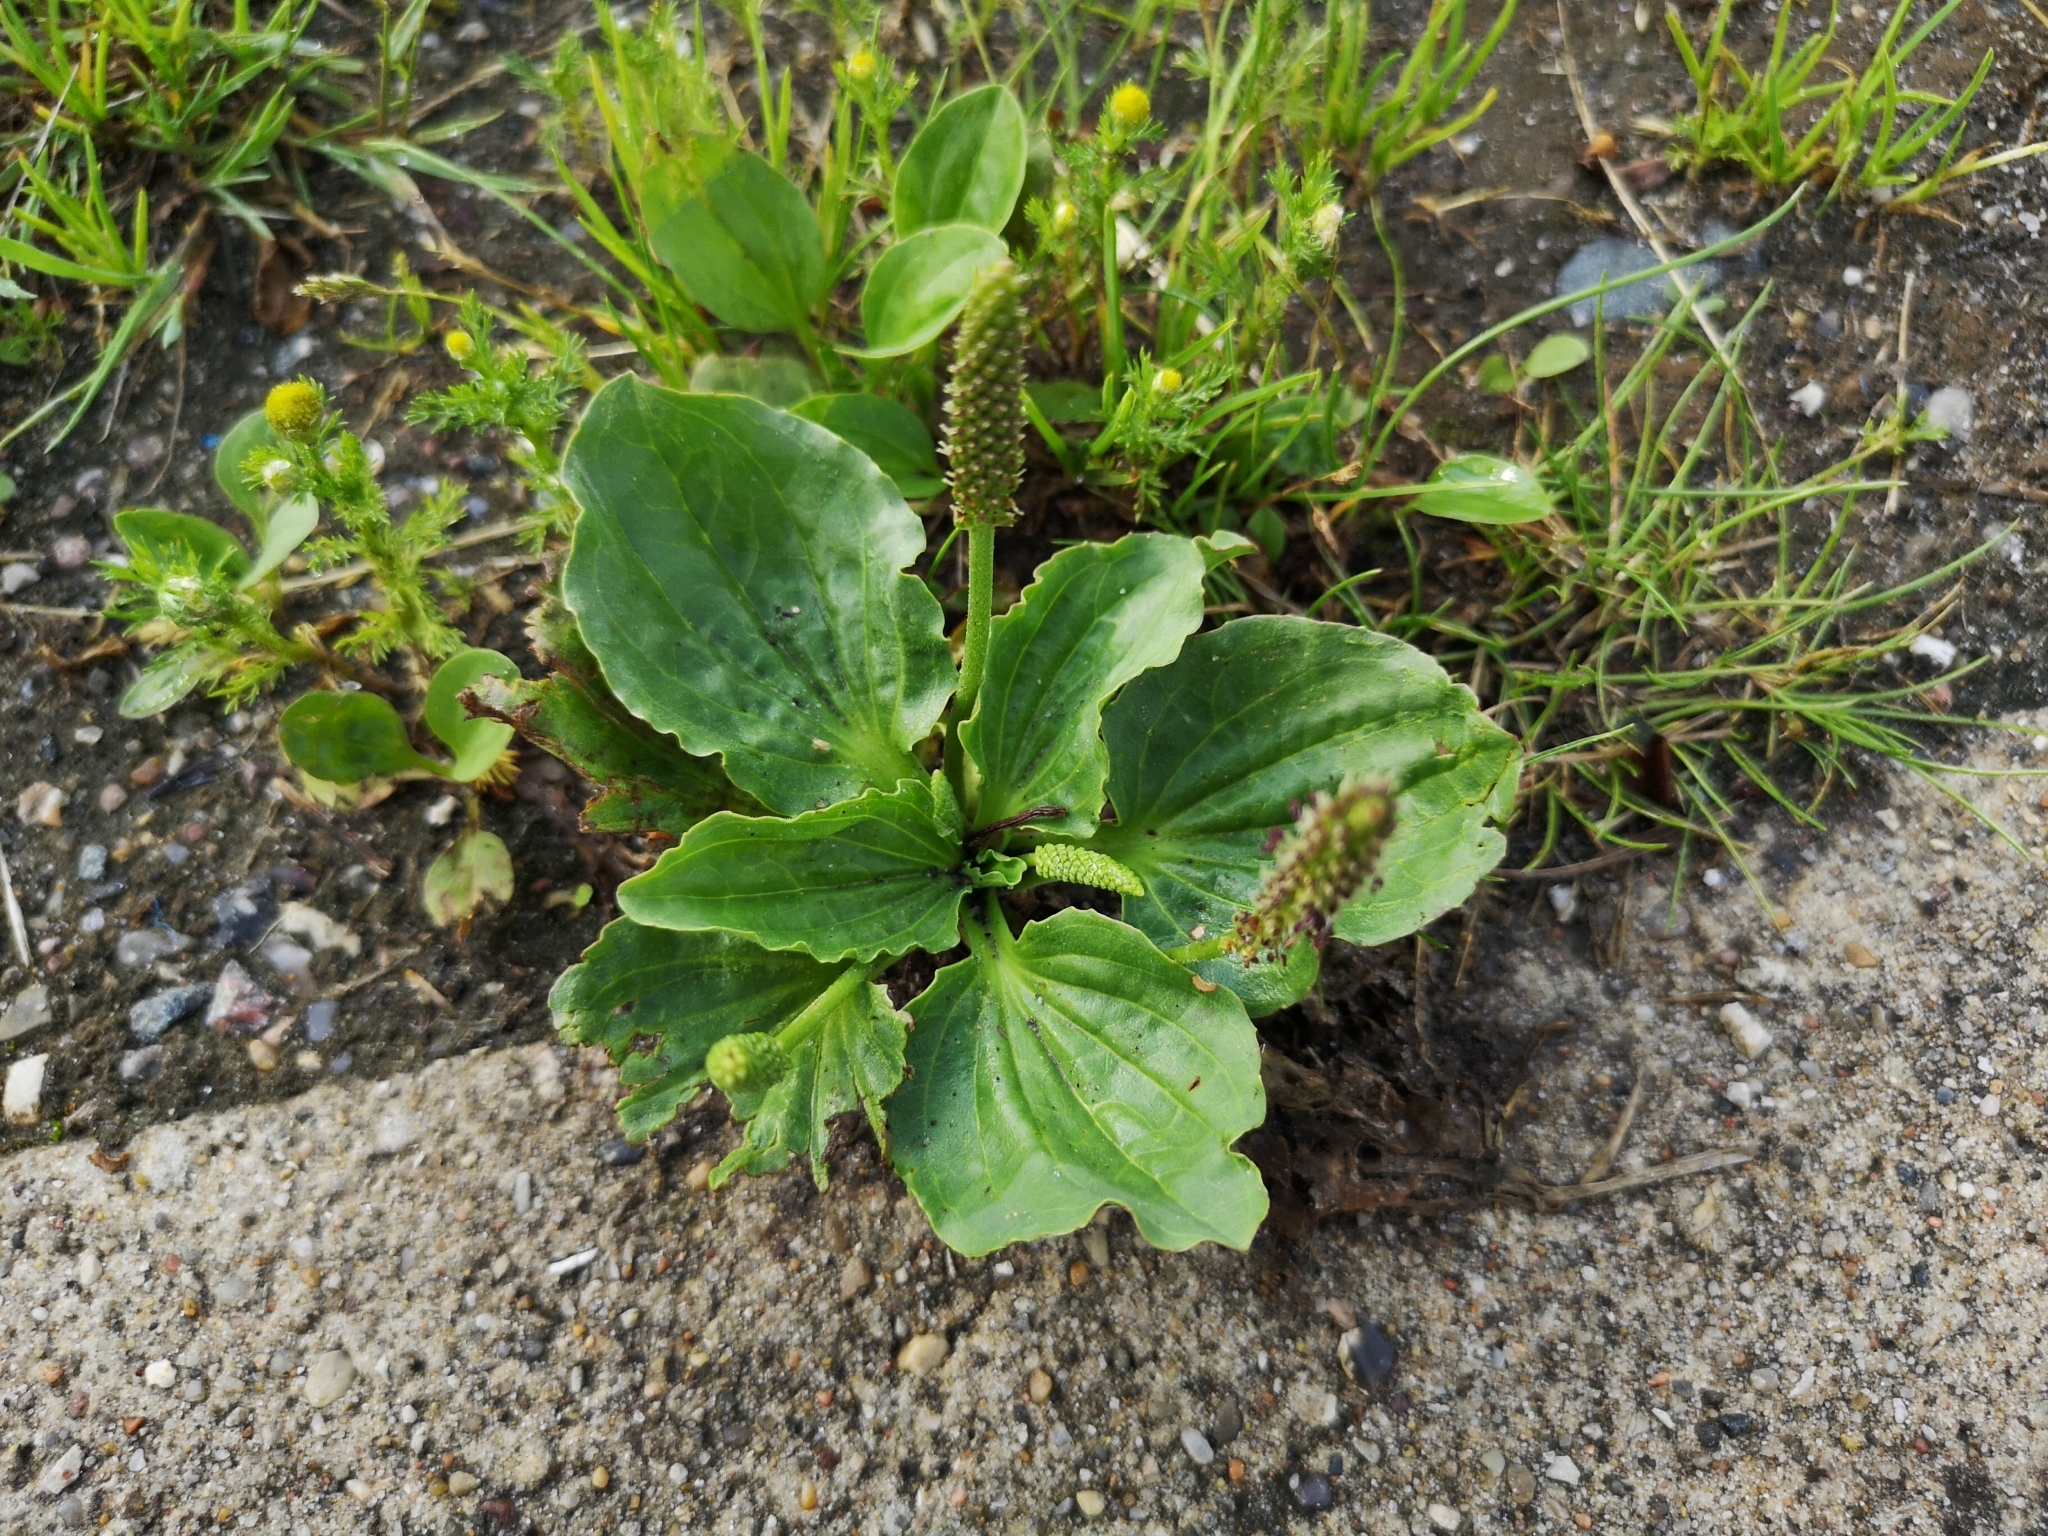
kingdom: Plantae
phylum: Tracheophyta
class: Magnoliopsida
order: Lamiales
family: Plantaginaceae
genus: Plantago
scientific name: Plantago major
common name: Common plantain
